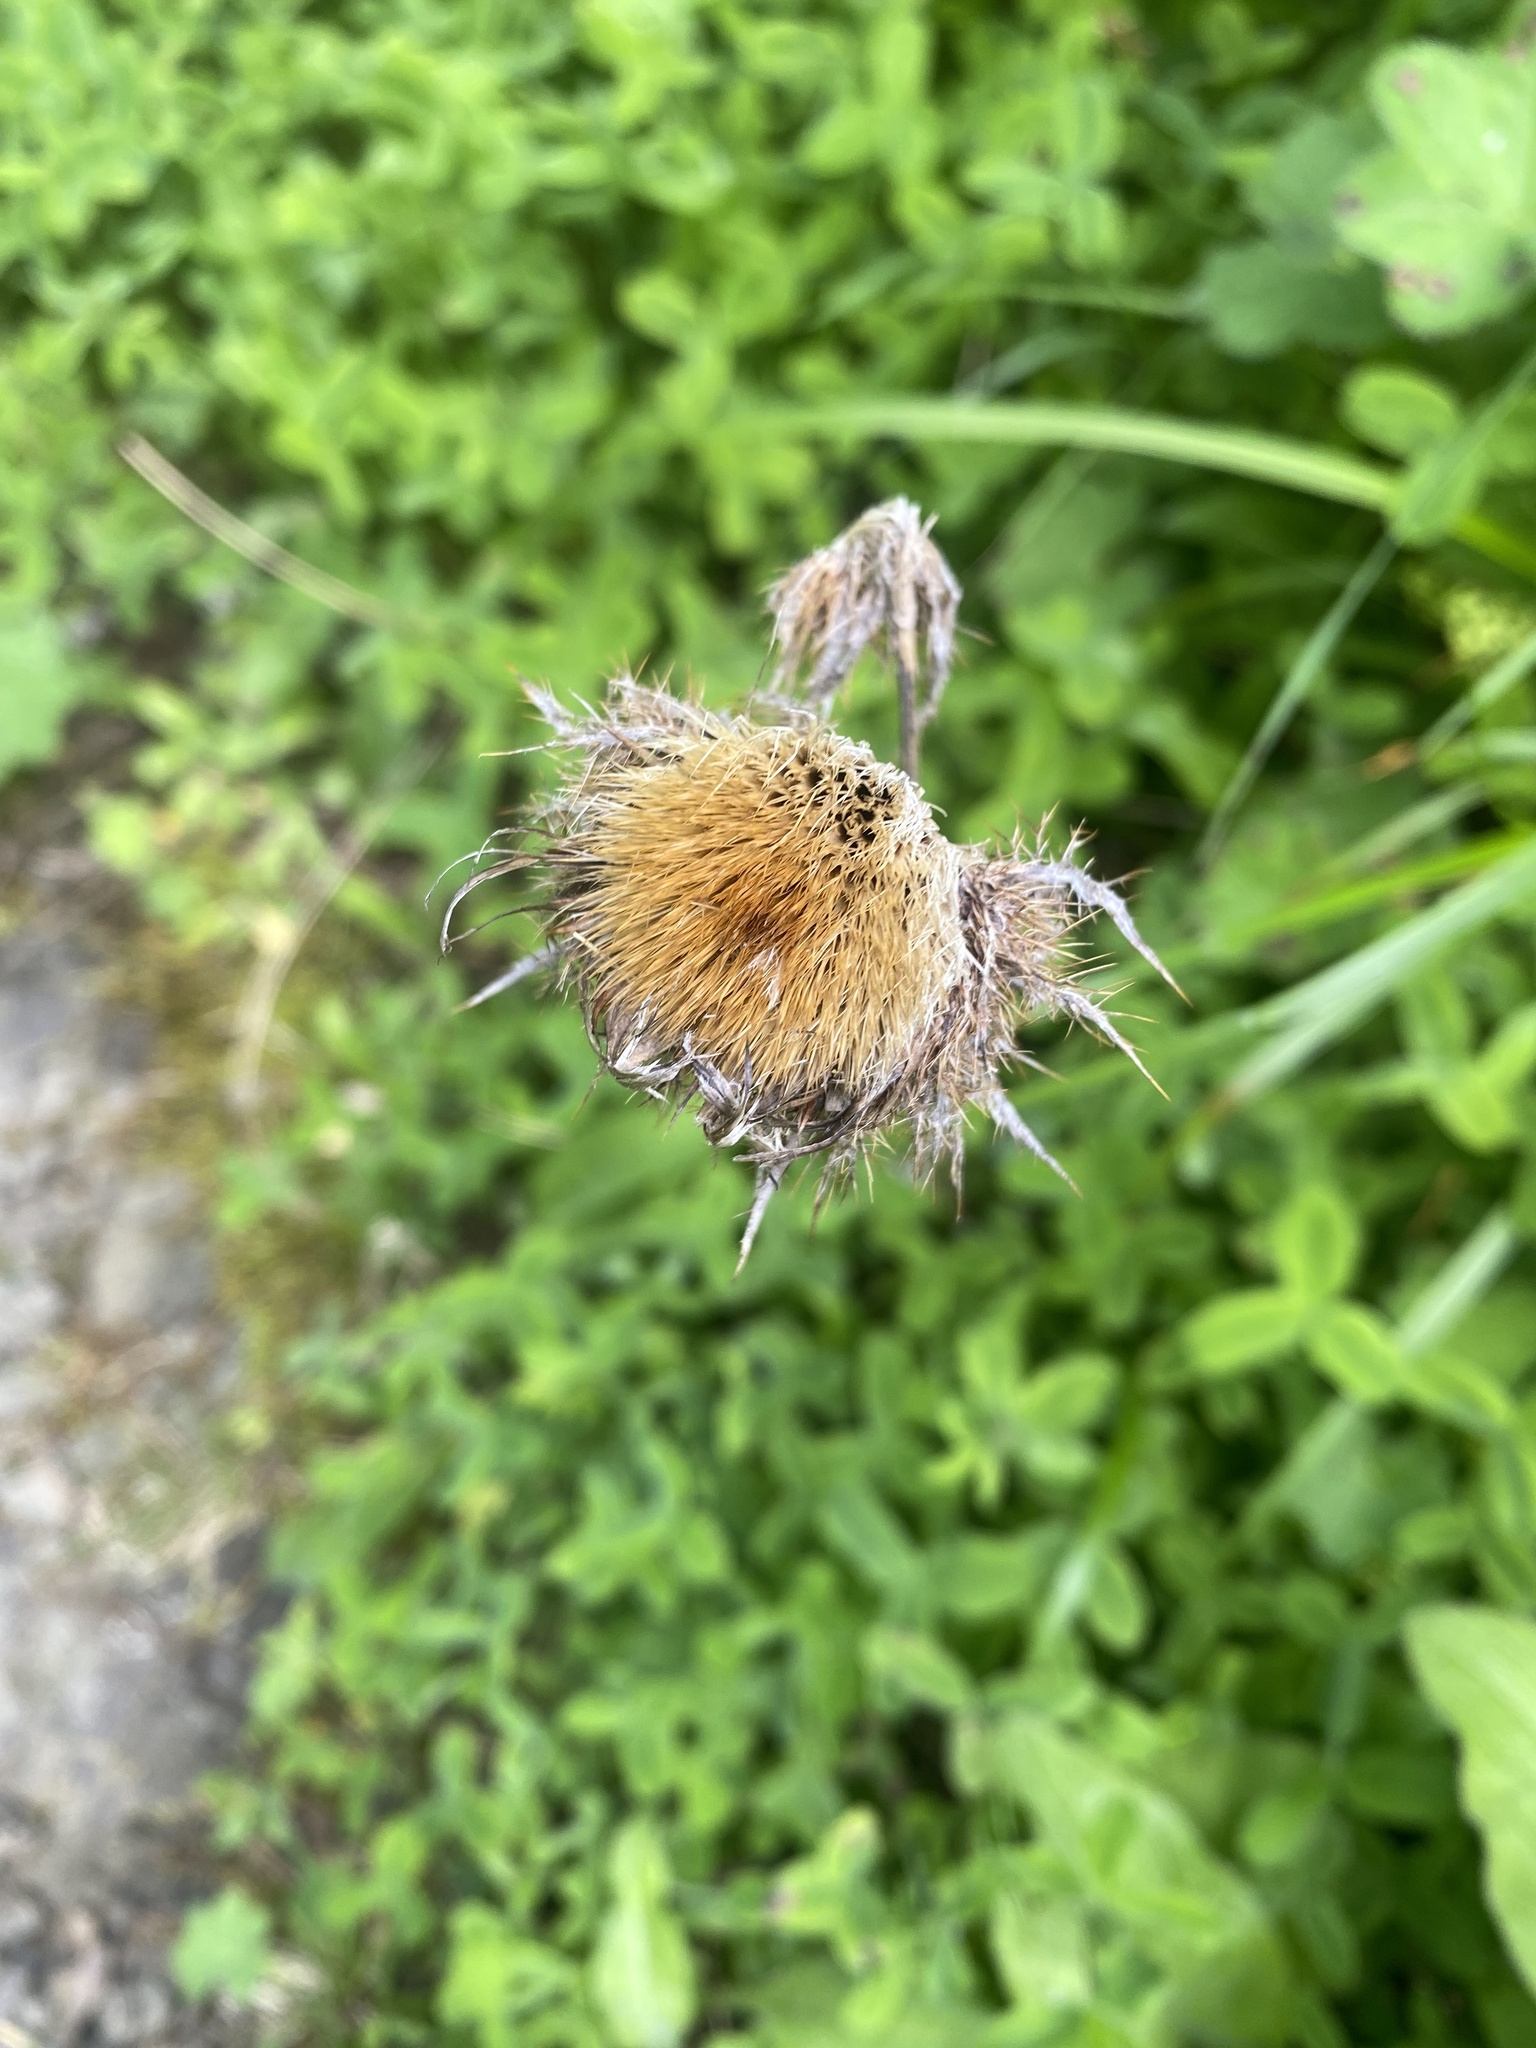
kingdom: Plantae
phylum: Tracheophyta
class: Magnoliopsida
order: Asterales
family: Asteraceae
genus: Carlina
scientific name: Carlina biebersteinii
